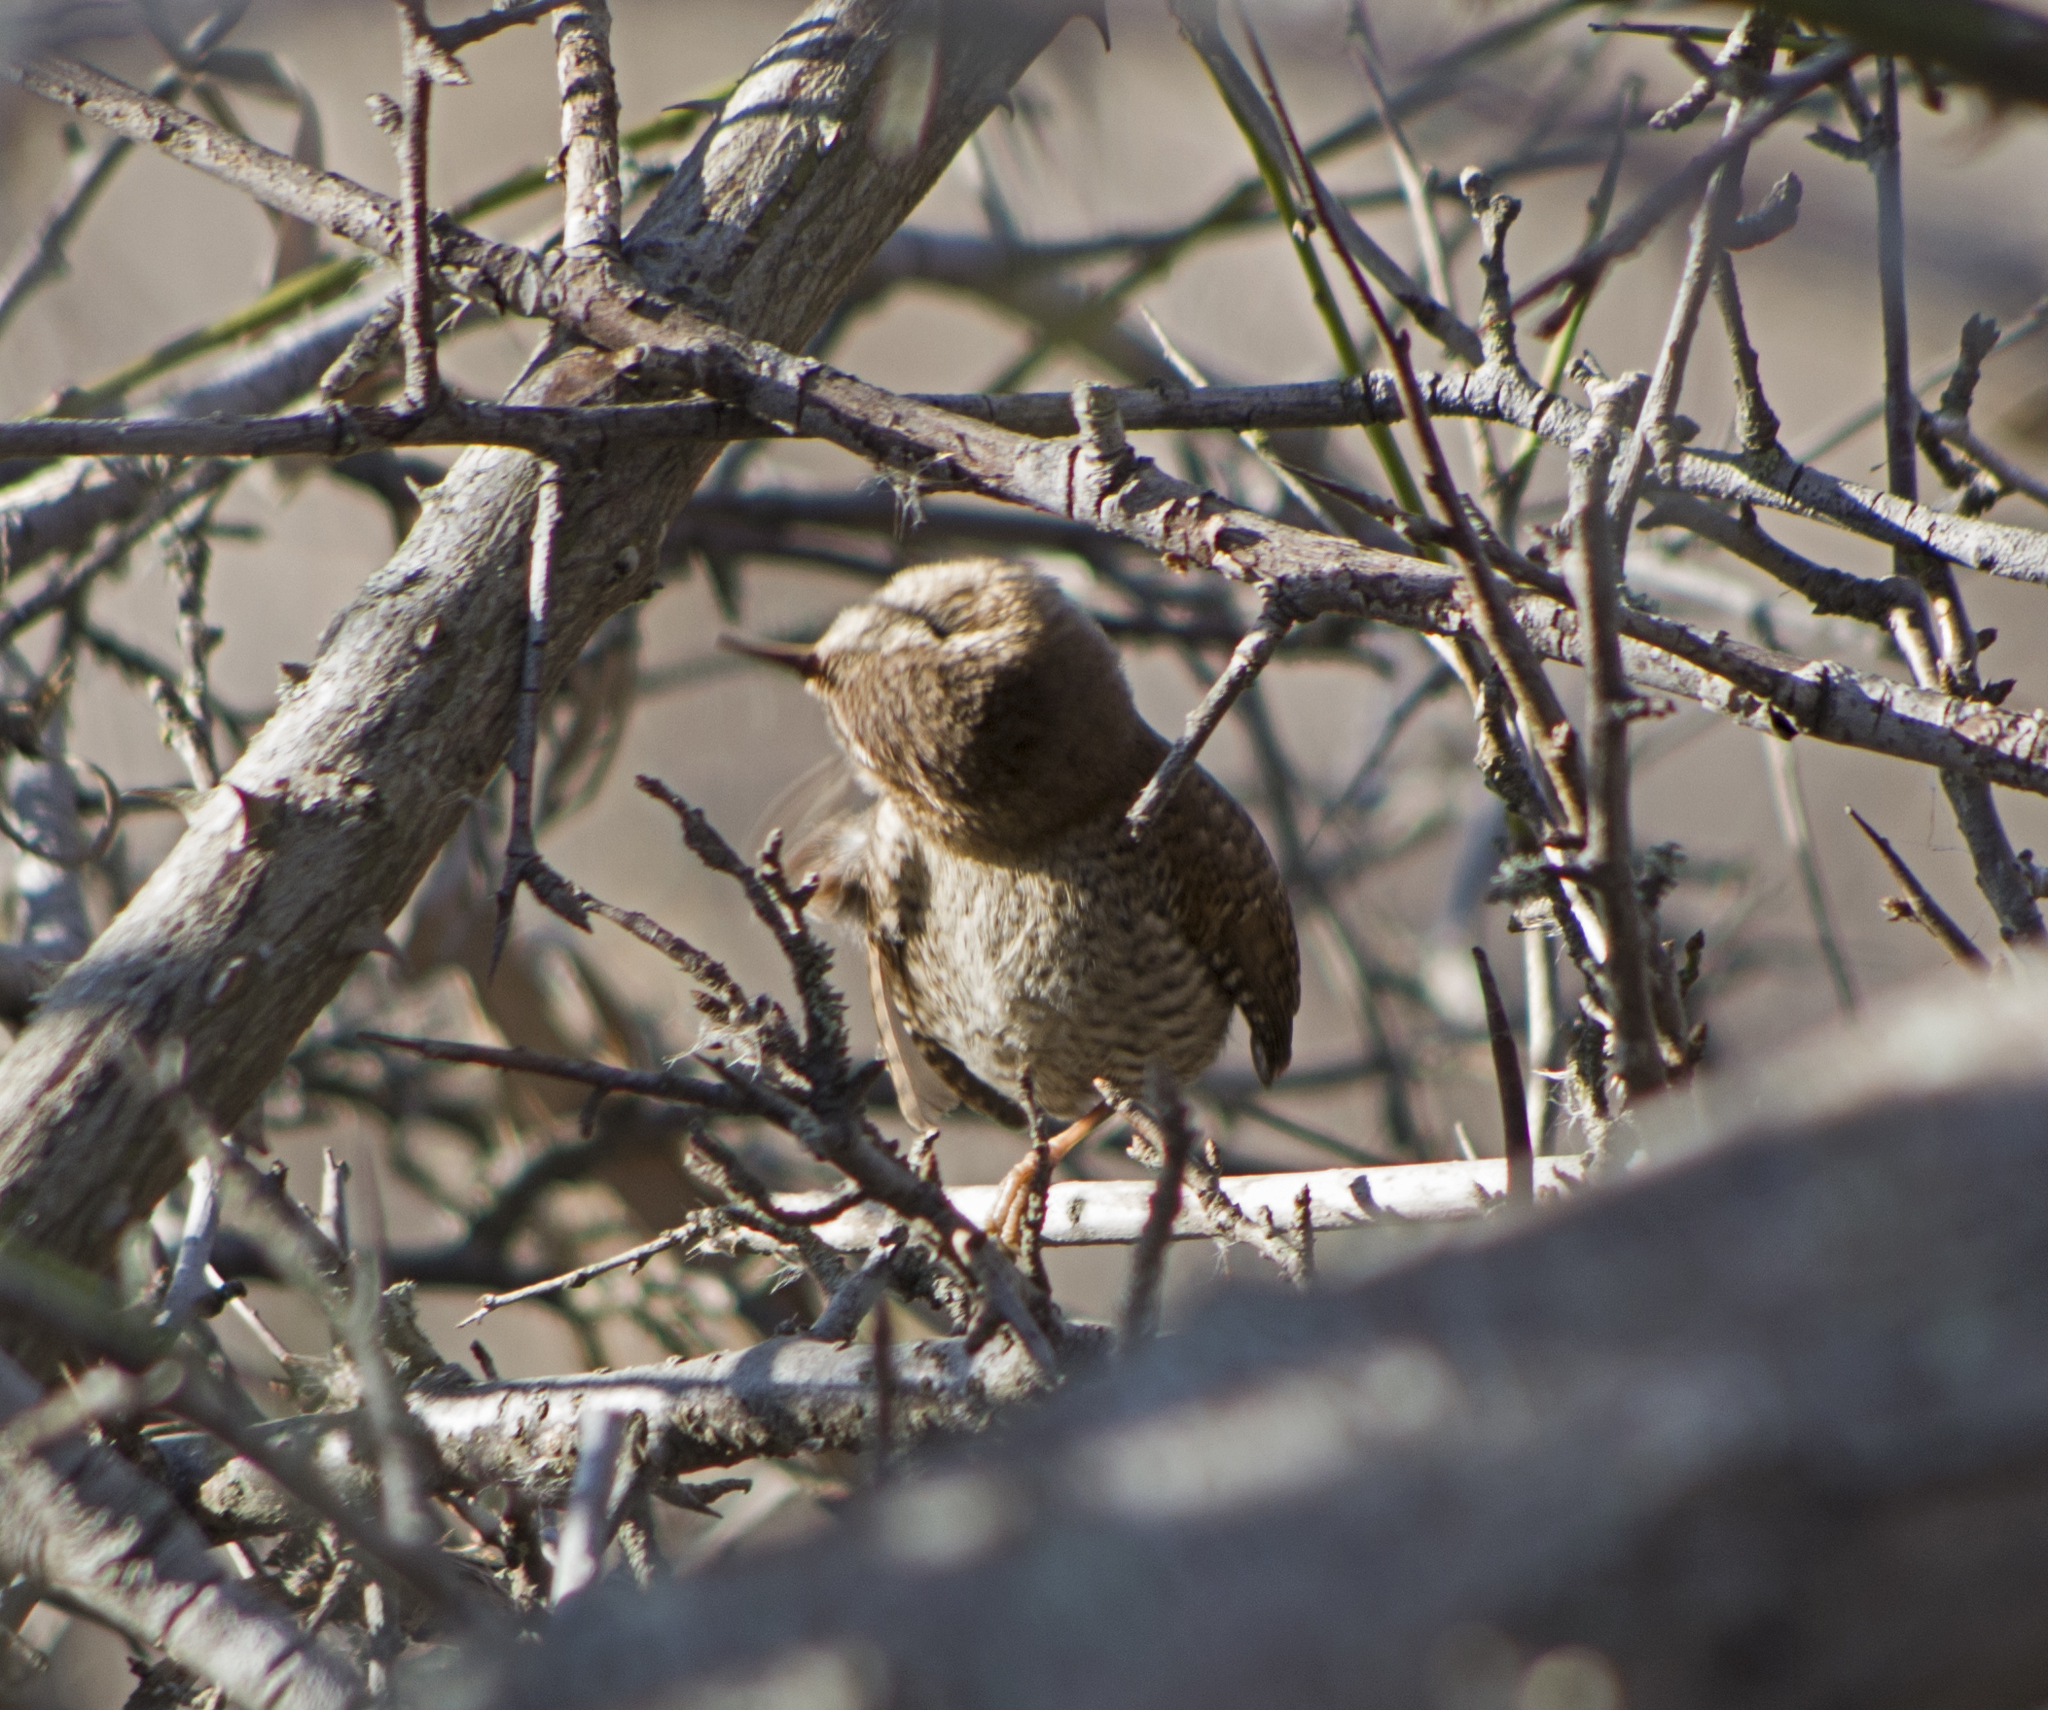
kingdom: Animalia
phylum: Chordata
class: Aves
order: Passeriformes
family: Troglodytidae
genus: Troglodytes
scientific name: Troglodytes troglodytes
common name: Eurasian wren
